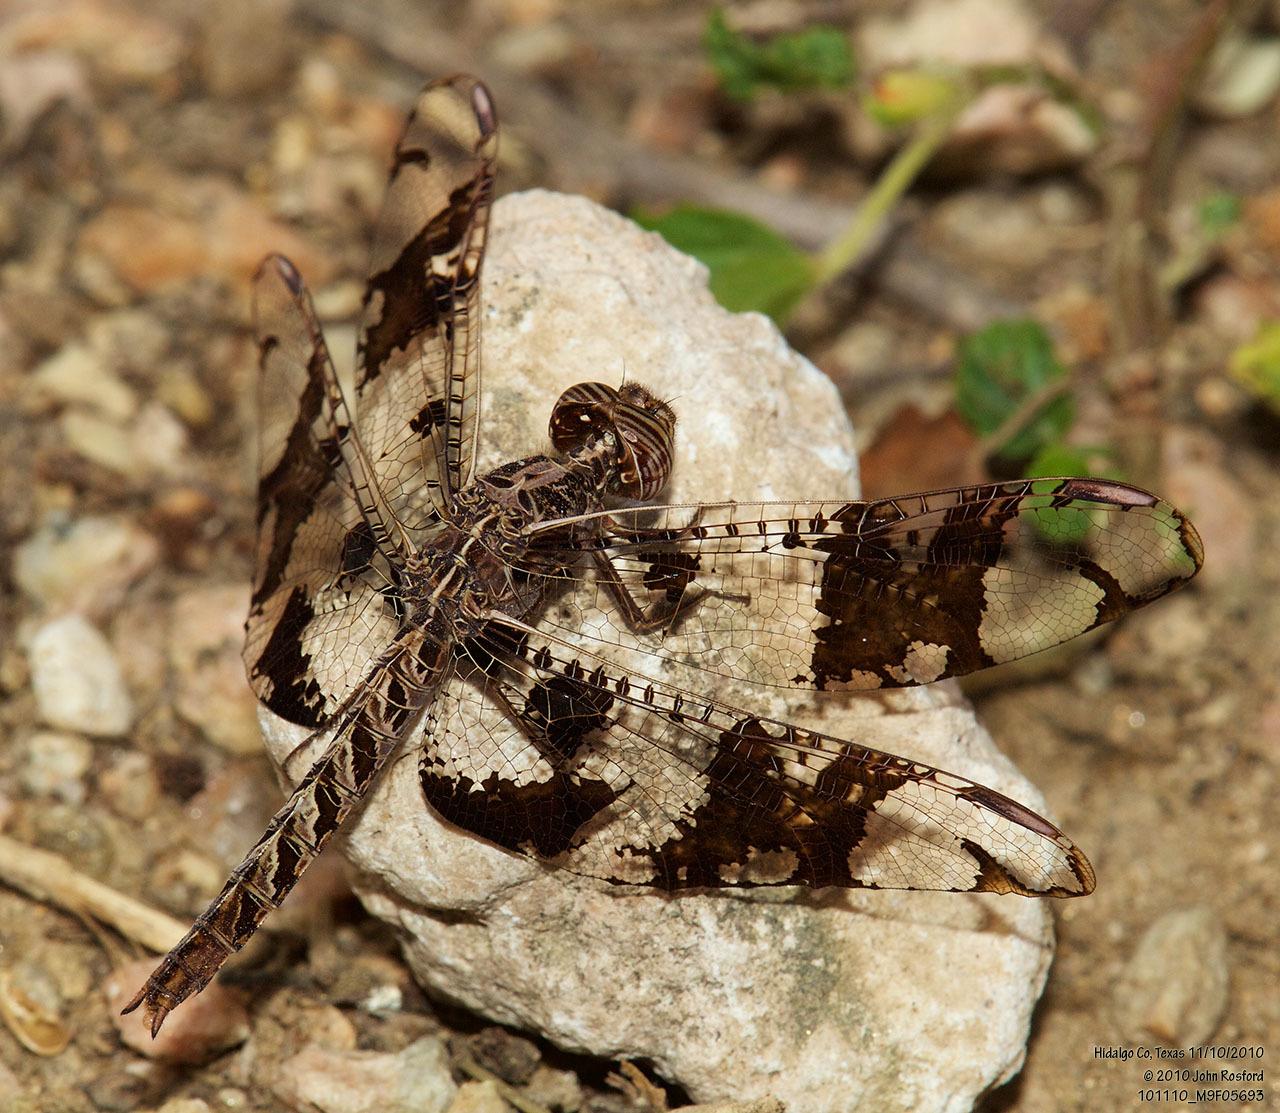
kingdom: Animalia
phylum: Arthropoda
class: Insecta
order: Odonata
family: Libellulidae
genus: Pseudoleon
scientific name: Pseudoleon superbus
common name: Filigree skimmer
